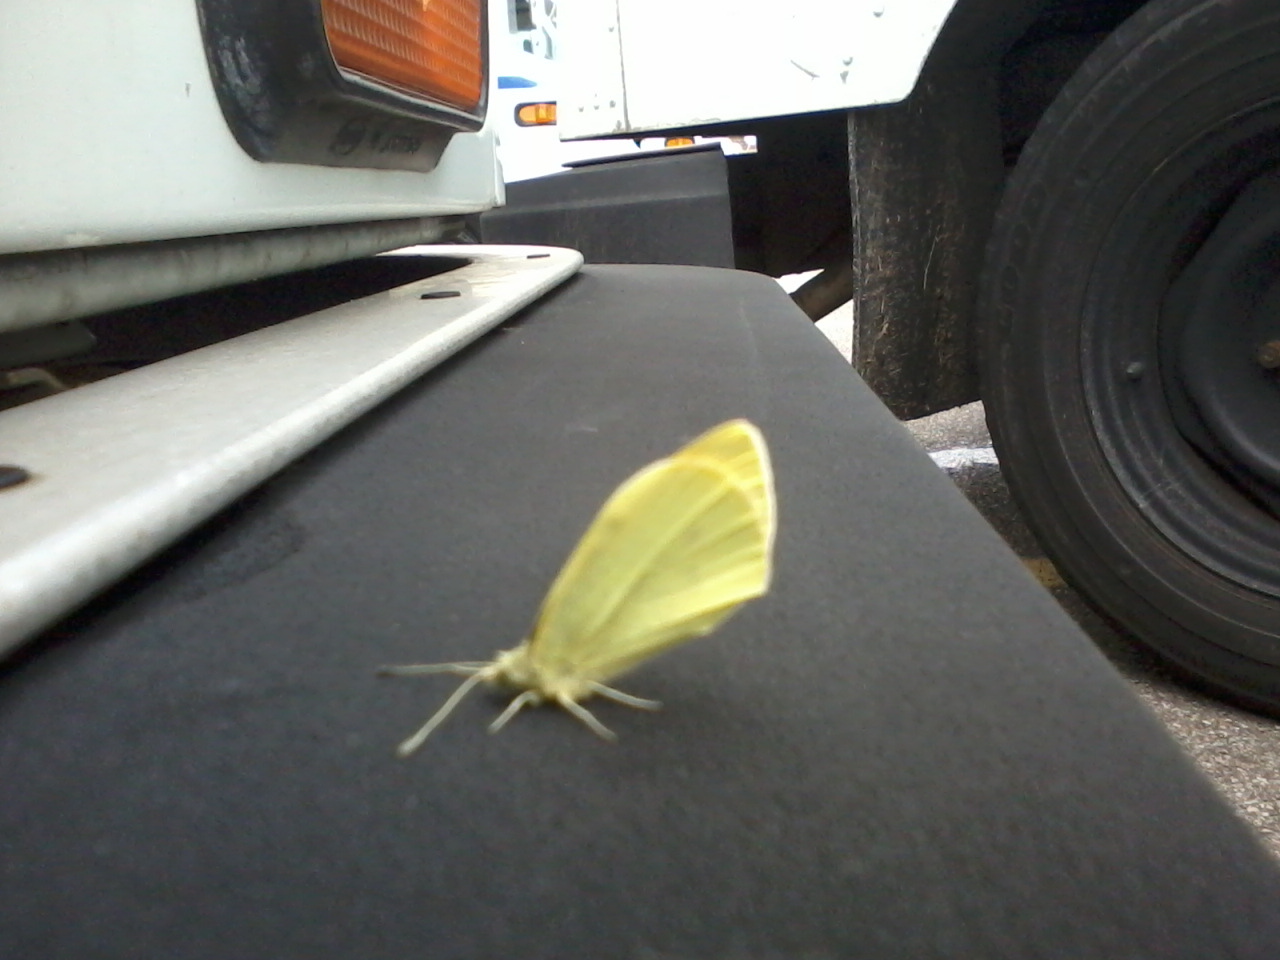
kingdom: Animalia
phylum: Arthropoda
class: Insecta
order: Lepidoptera
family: Pieridae
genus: Pieris
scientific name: Pieris rapae
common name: Small white
